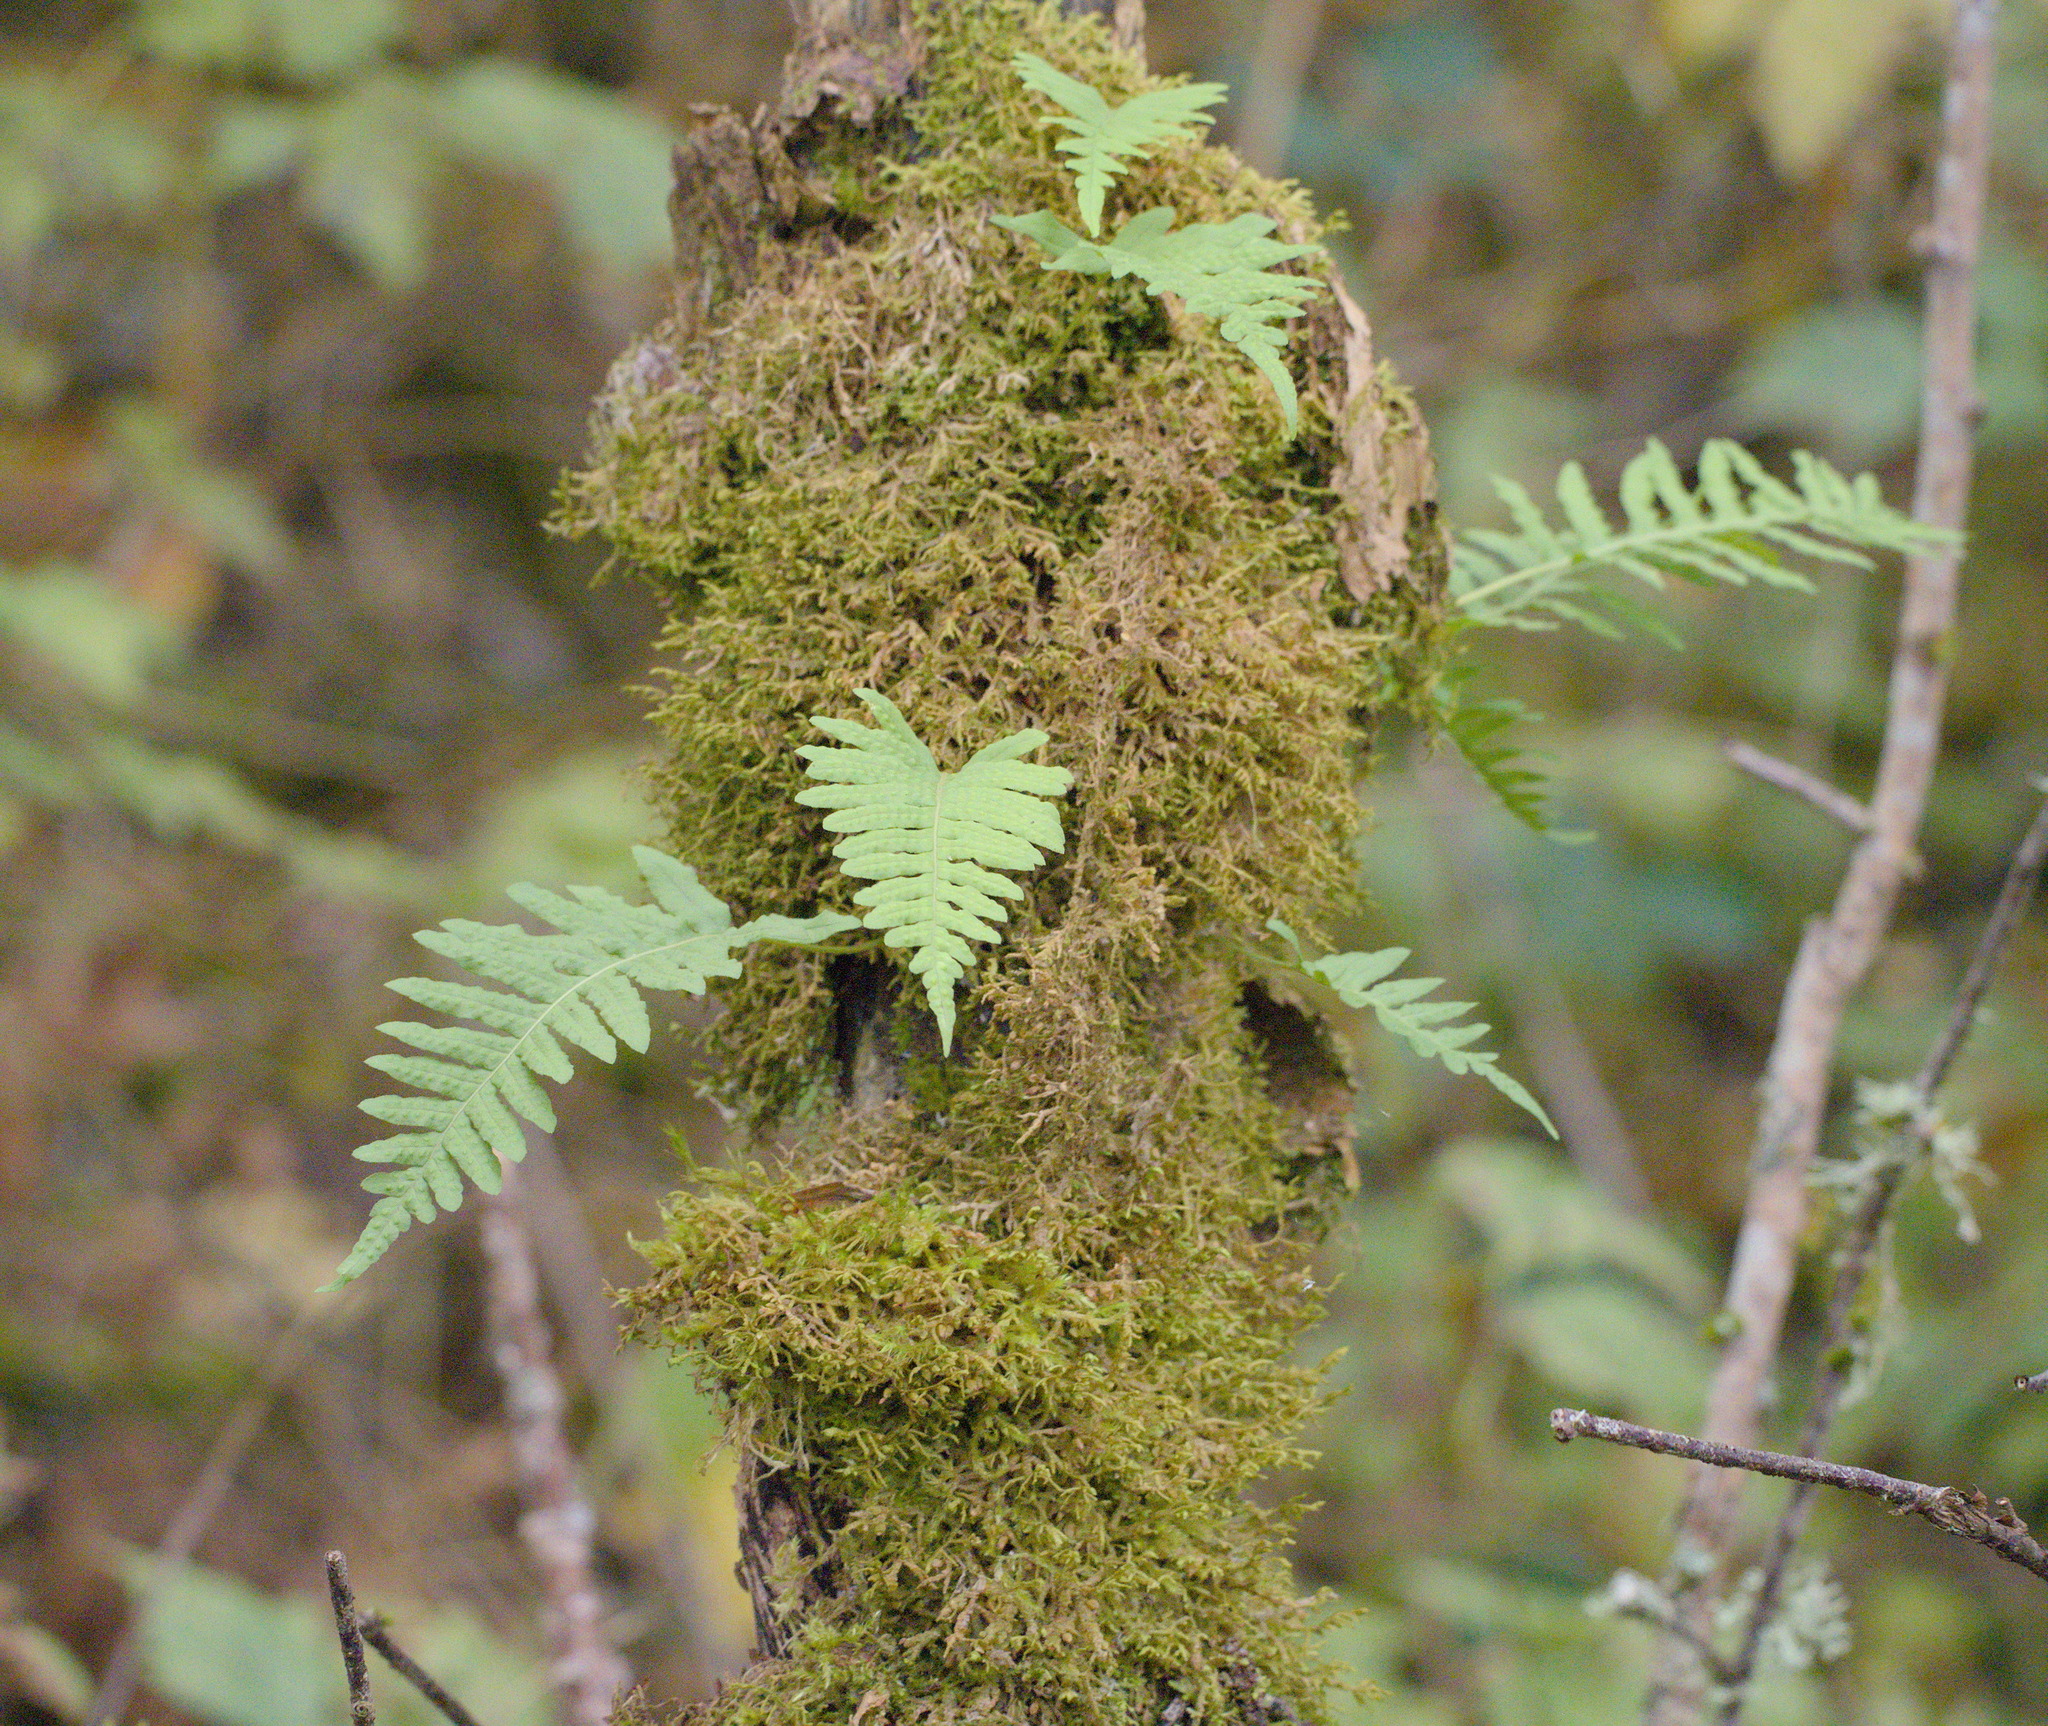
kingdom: Plantae
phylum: Tracheophyta
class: Polypodiopsida
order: Polypodiales
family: Polypodiaceae
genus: Polypodium
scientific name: Polypodium glycyrrhiza
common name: Licorice fern
